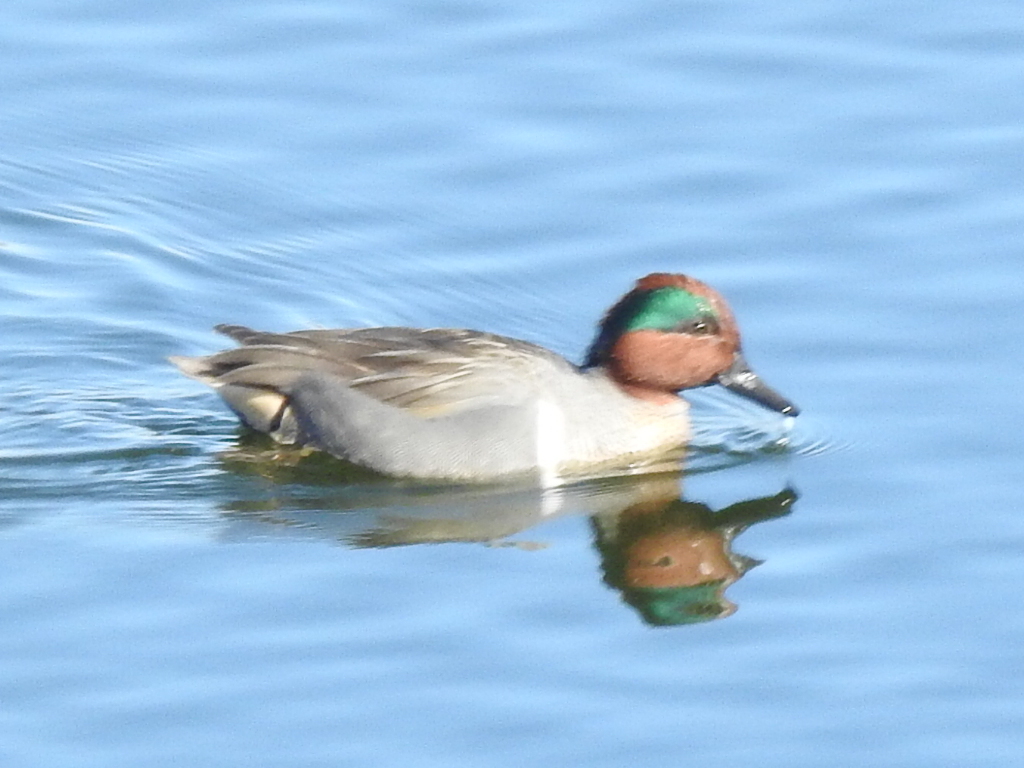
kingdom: Animalia
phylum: Chordata
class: Aves
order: Anseriformes
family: Anatidae
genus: Anas
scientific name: Anas crecca
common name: Eurasian teal
